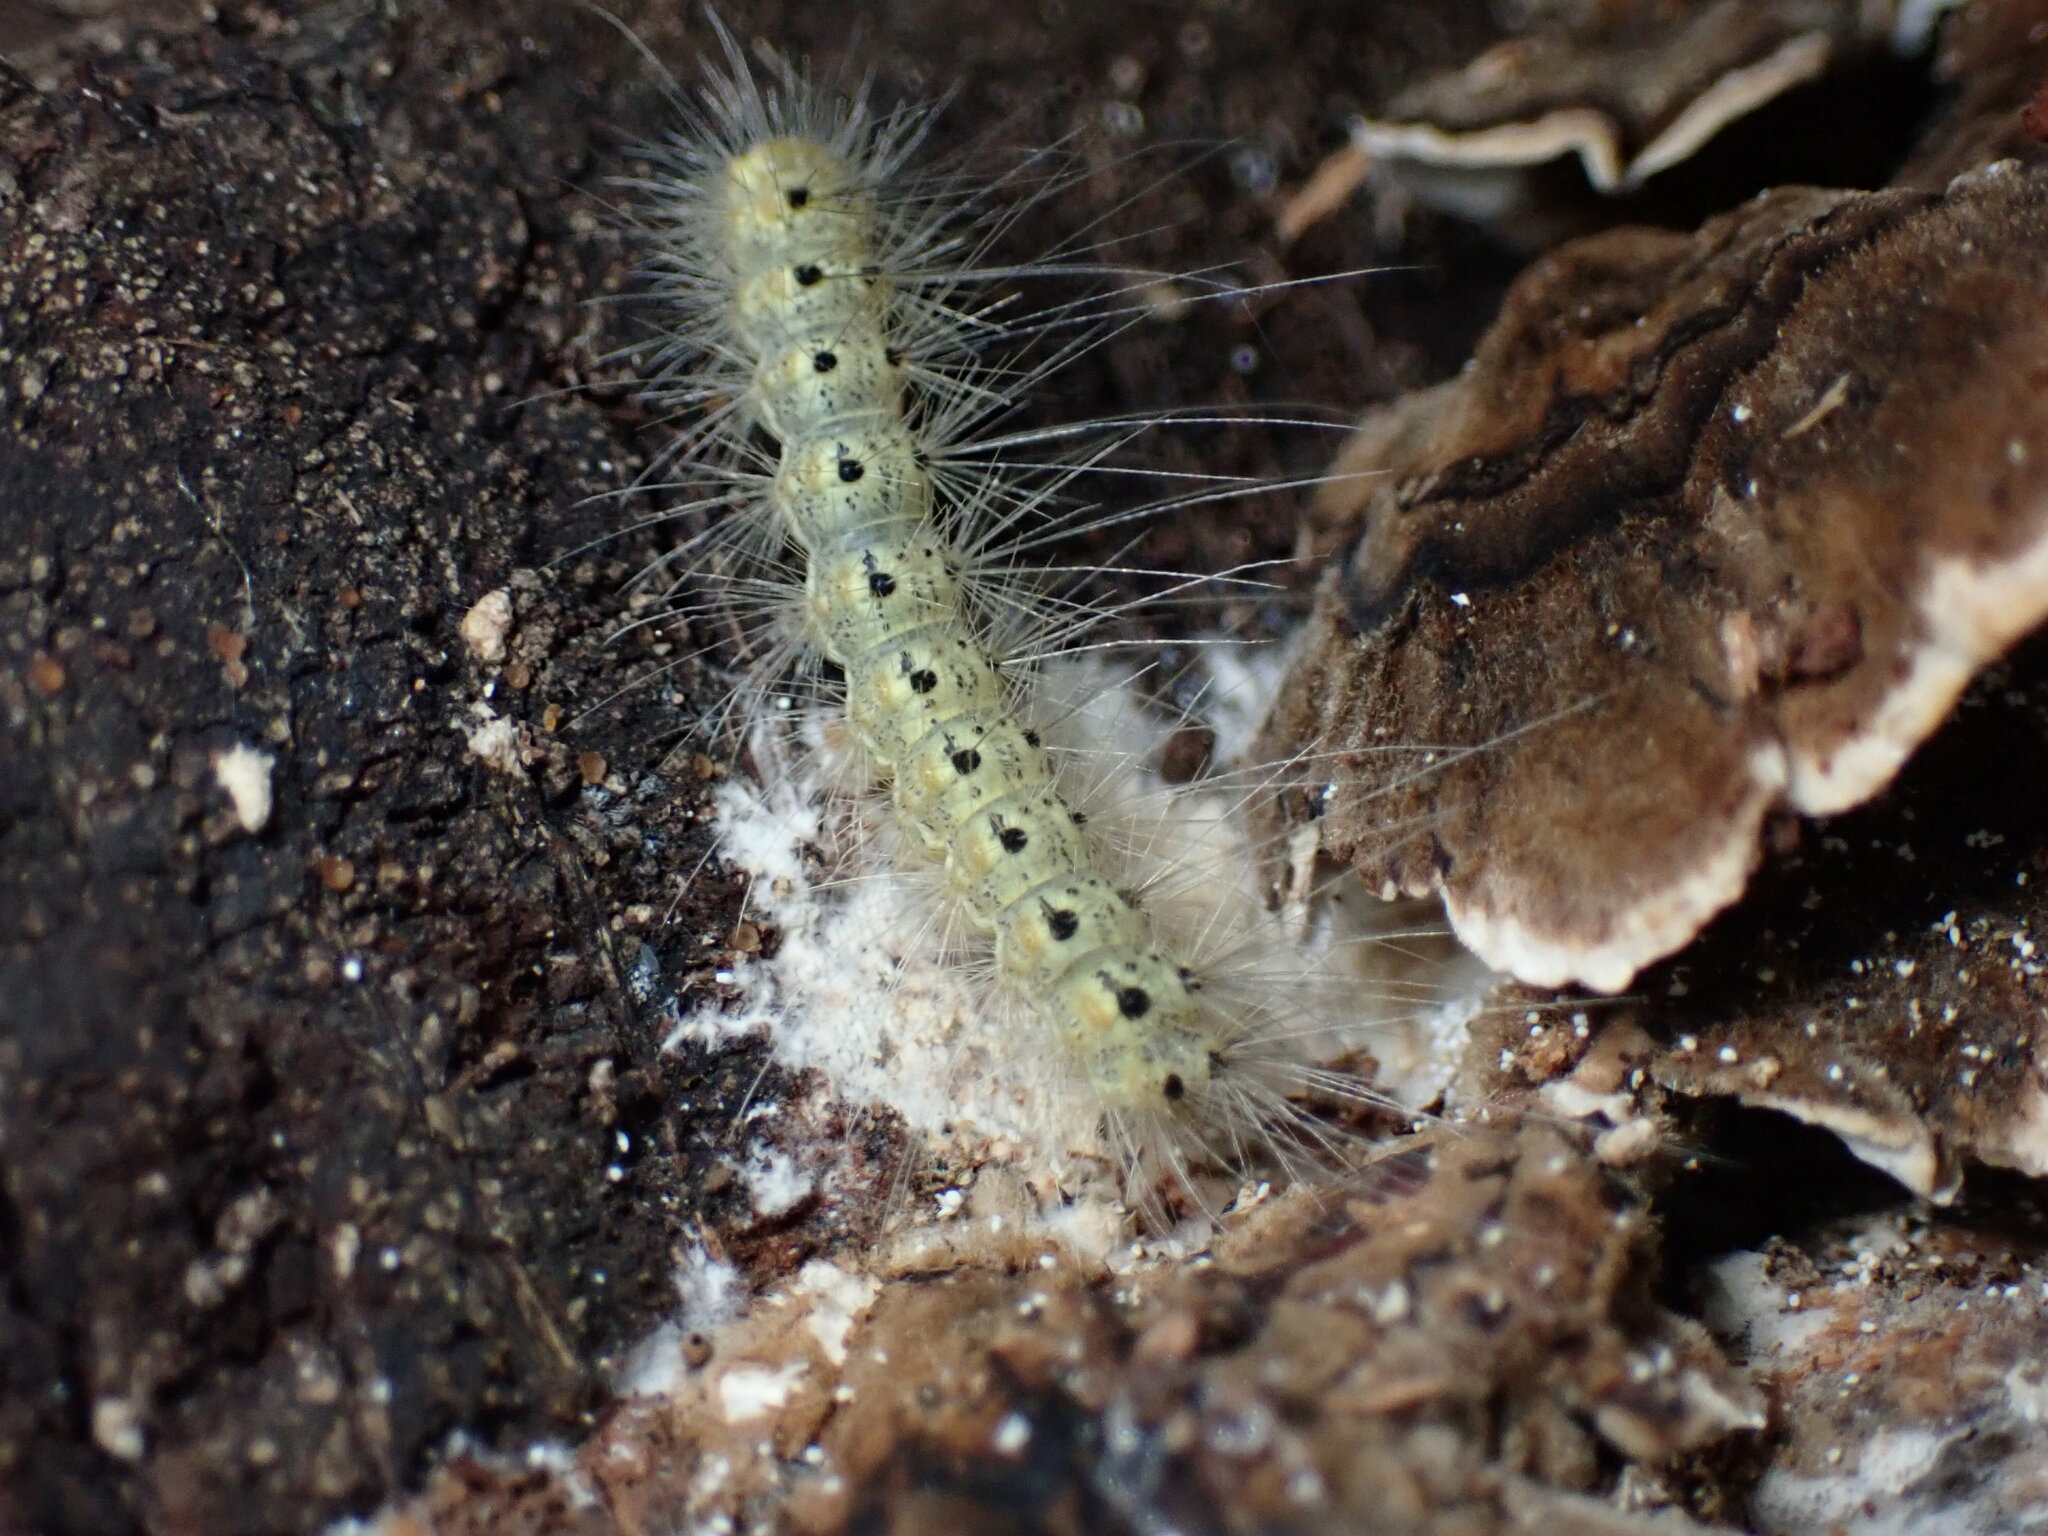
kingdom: Animalia
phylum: Arthropoda
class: Insecta
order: Lepidoptera
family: Erebidae
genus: Hyphantria
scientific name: Hyphantria cunea
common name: American white moth
